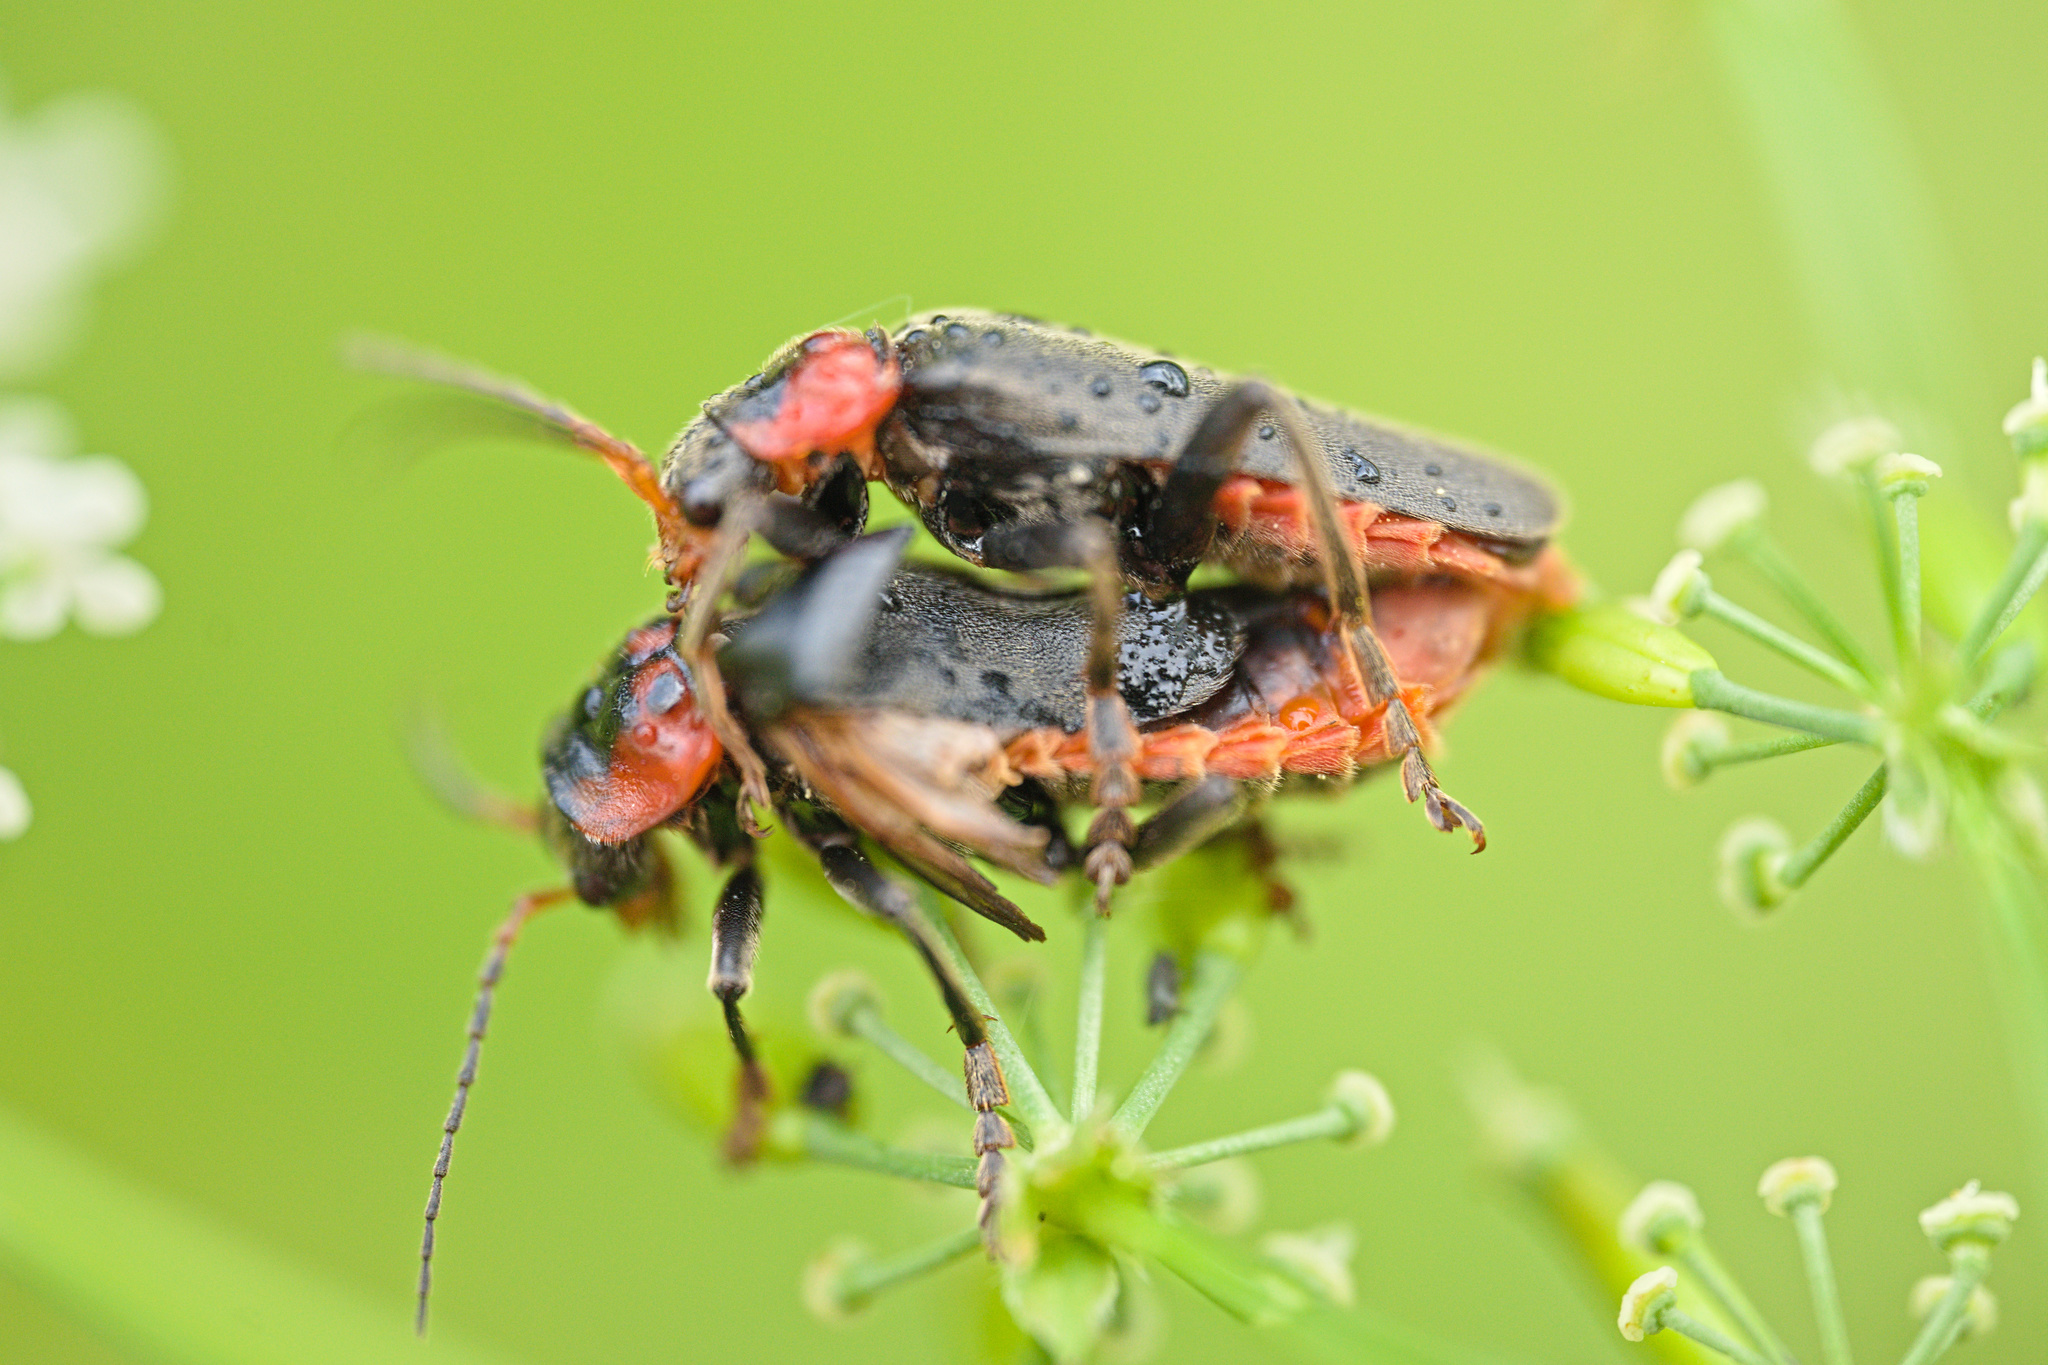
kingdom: Animalia
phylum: Arthropoda
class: Insecta
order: Coleoptera
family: Cantharidae
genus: Cantharis
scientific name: Cantharis fusca
